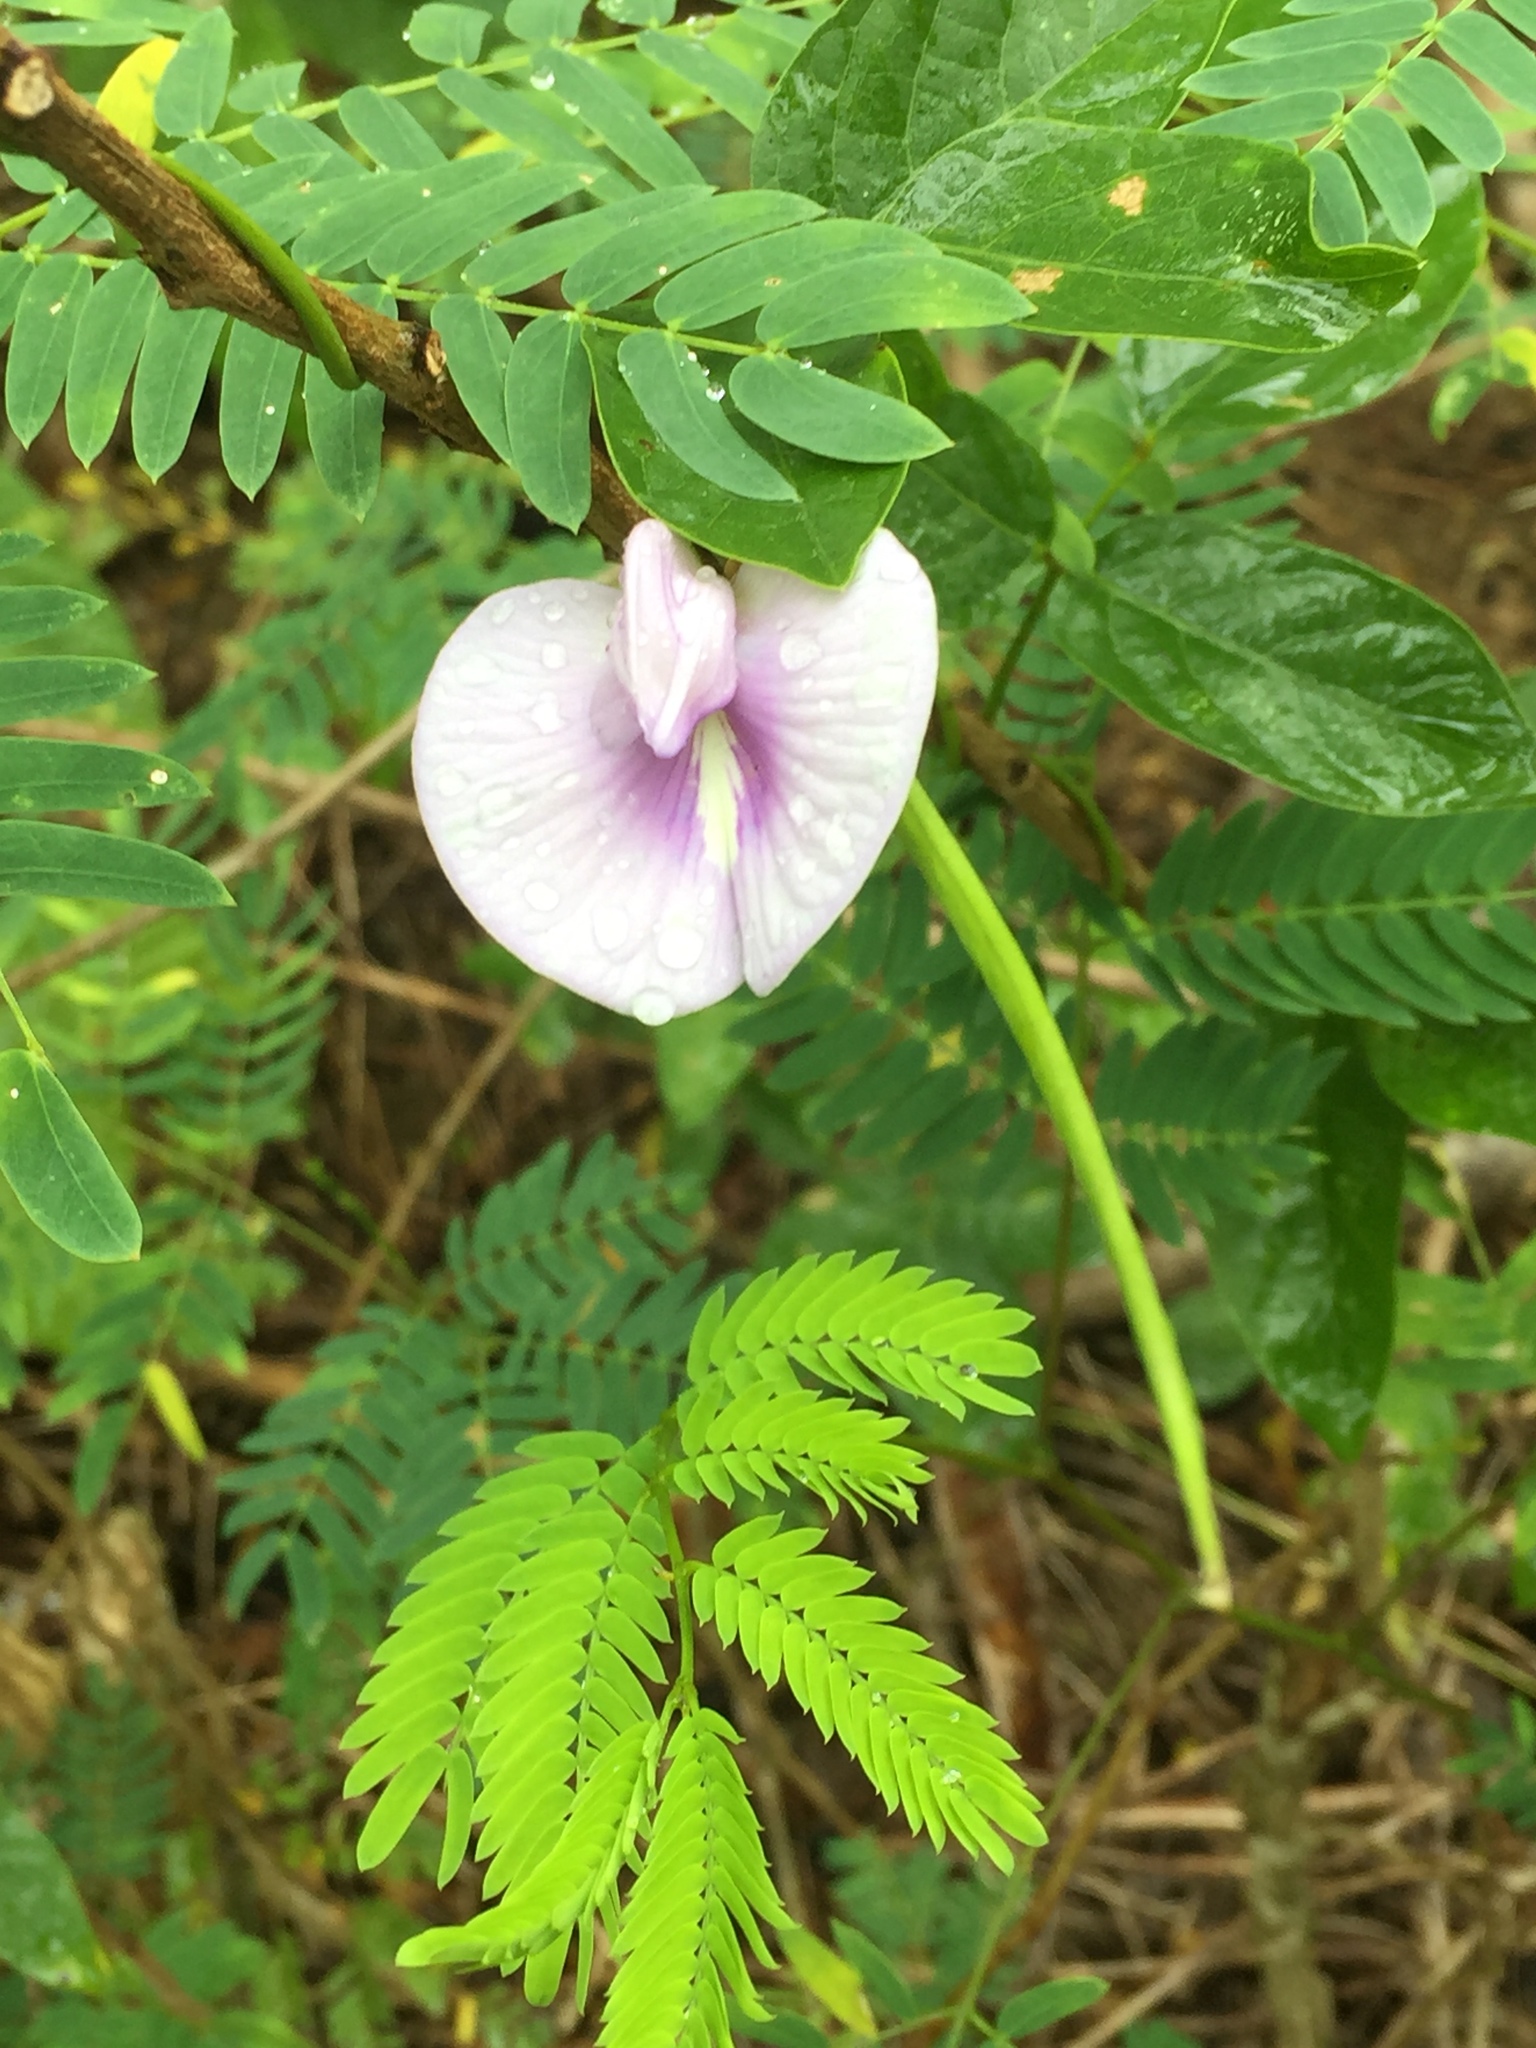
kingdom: Plantae
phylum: Tracheophyta
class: Magnoliopsida
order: Fabales
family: Fabaceae
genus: Centrosema
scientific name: Centrosema virginianum
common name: Butterfly-pea
